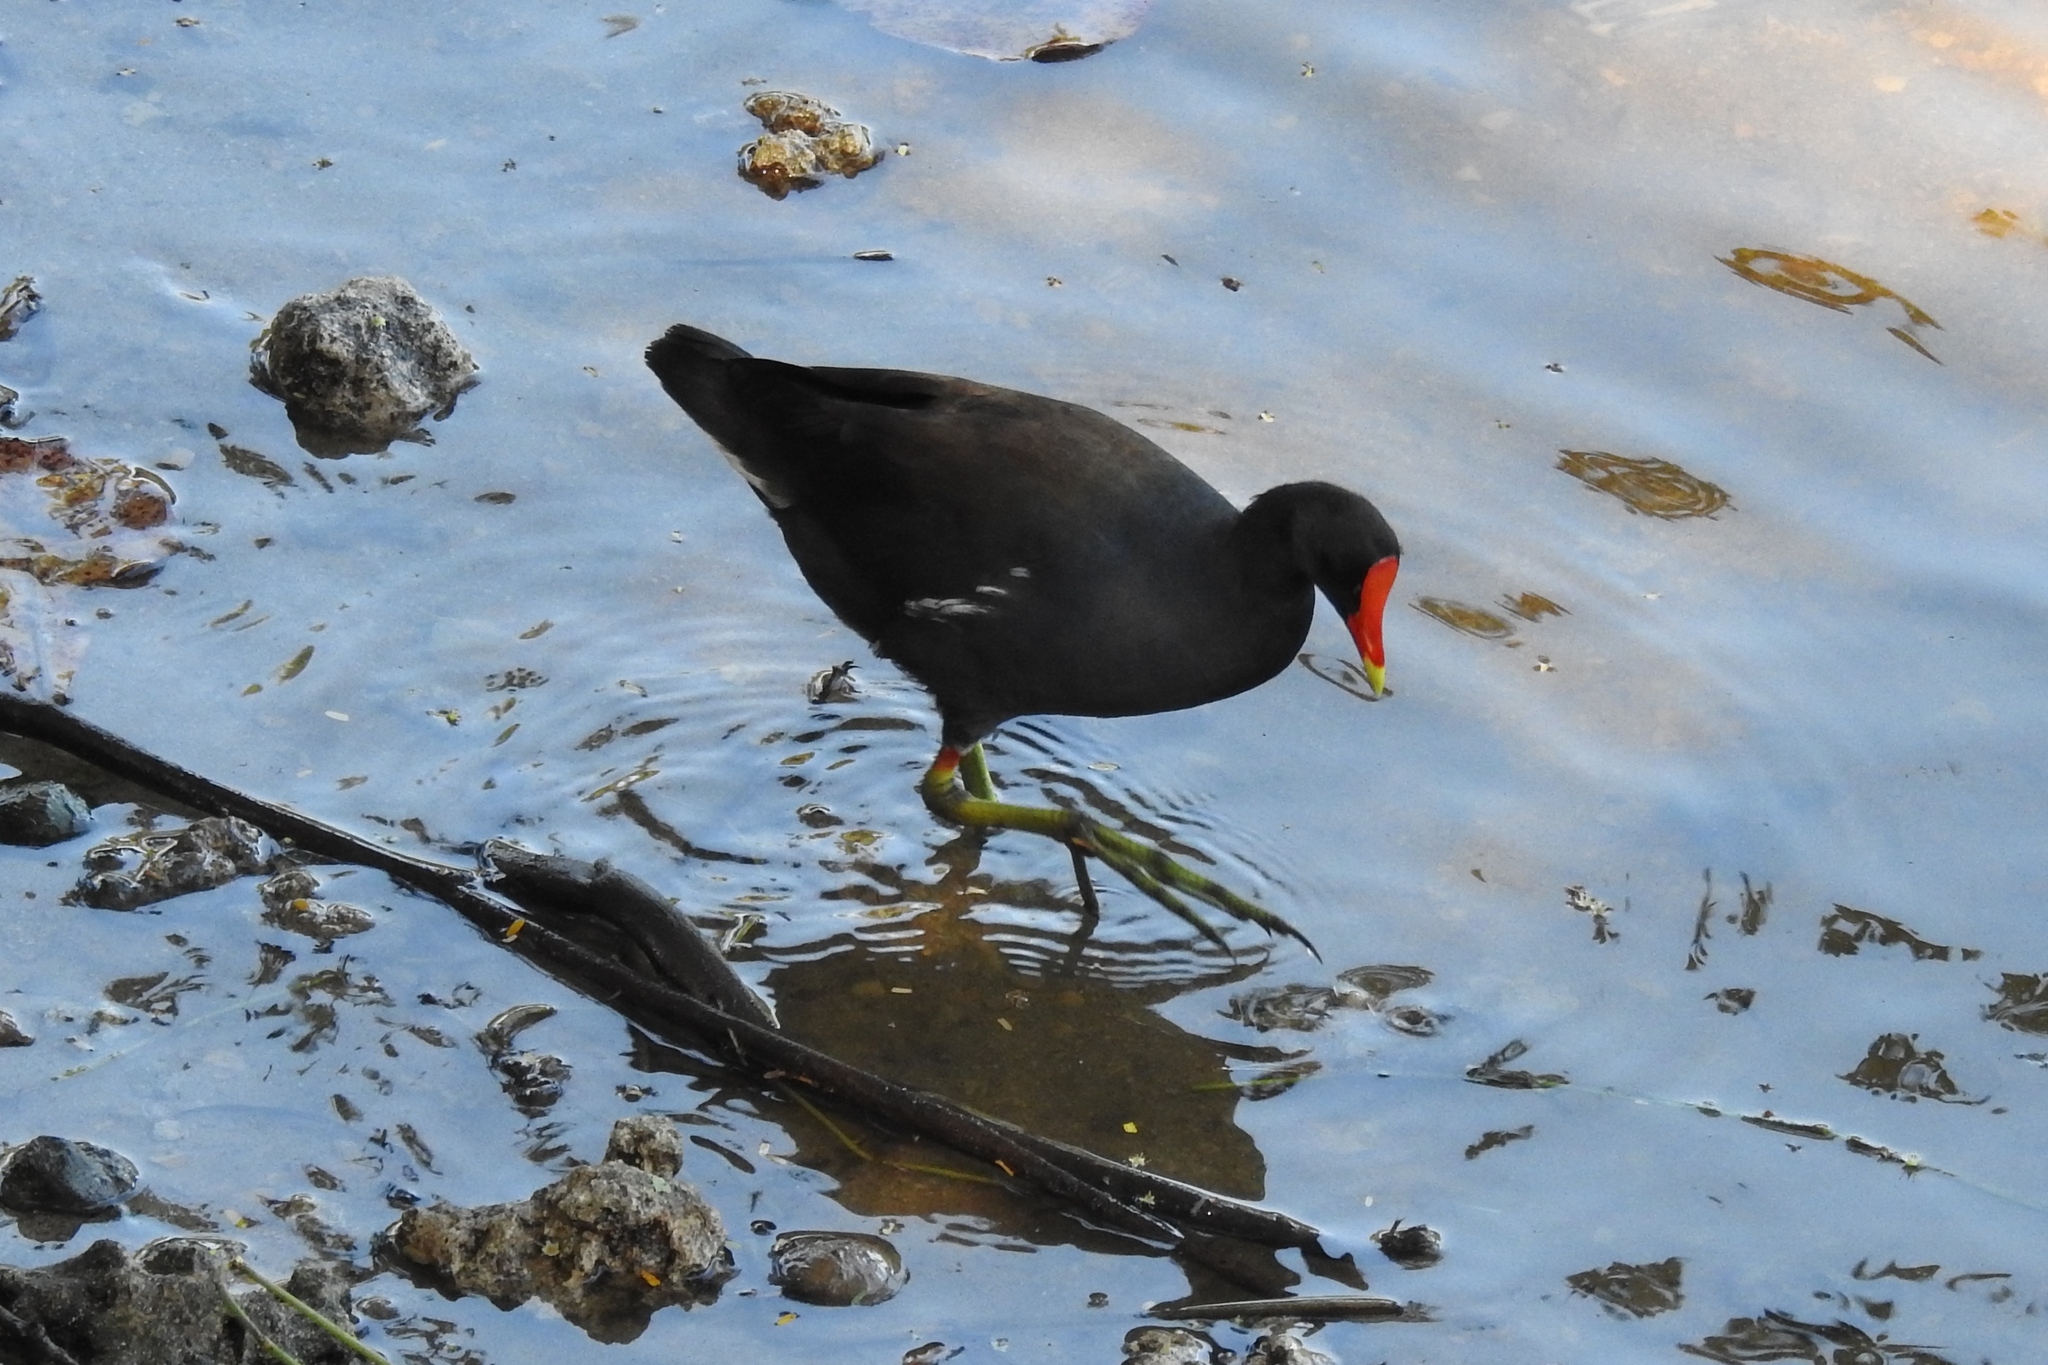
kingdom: Animalia
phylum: Chordata
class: Aves
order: Gruiformes
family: Rallidae
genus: Gallinula
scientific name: Gallinula chloropus
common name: Common moorhen
